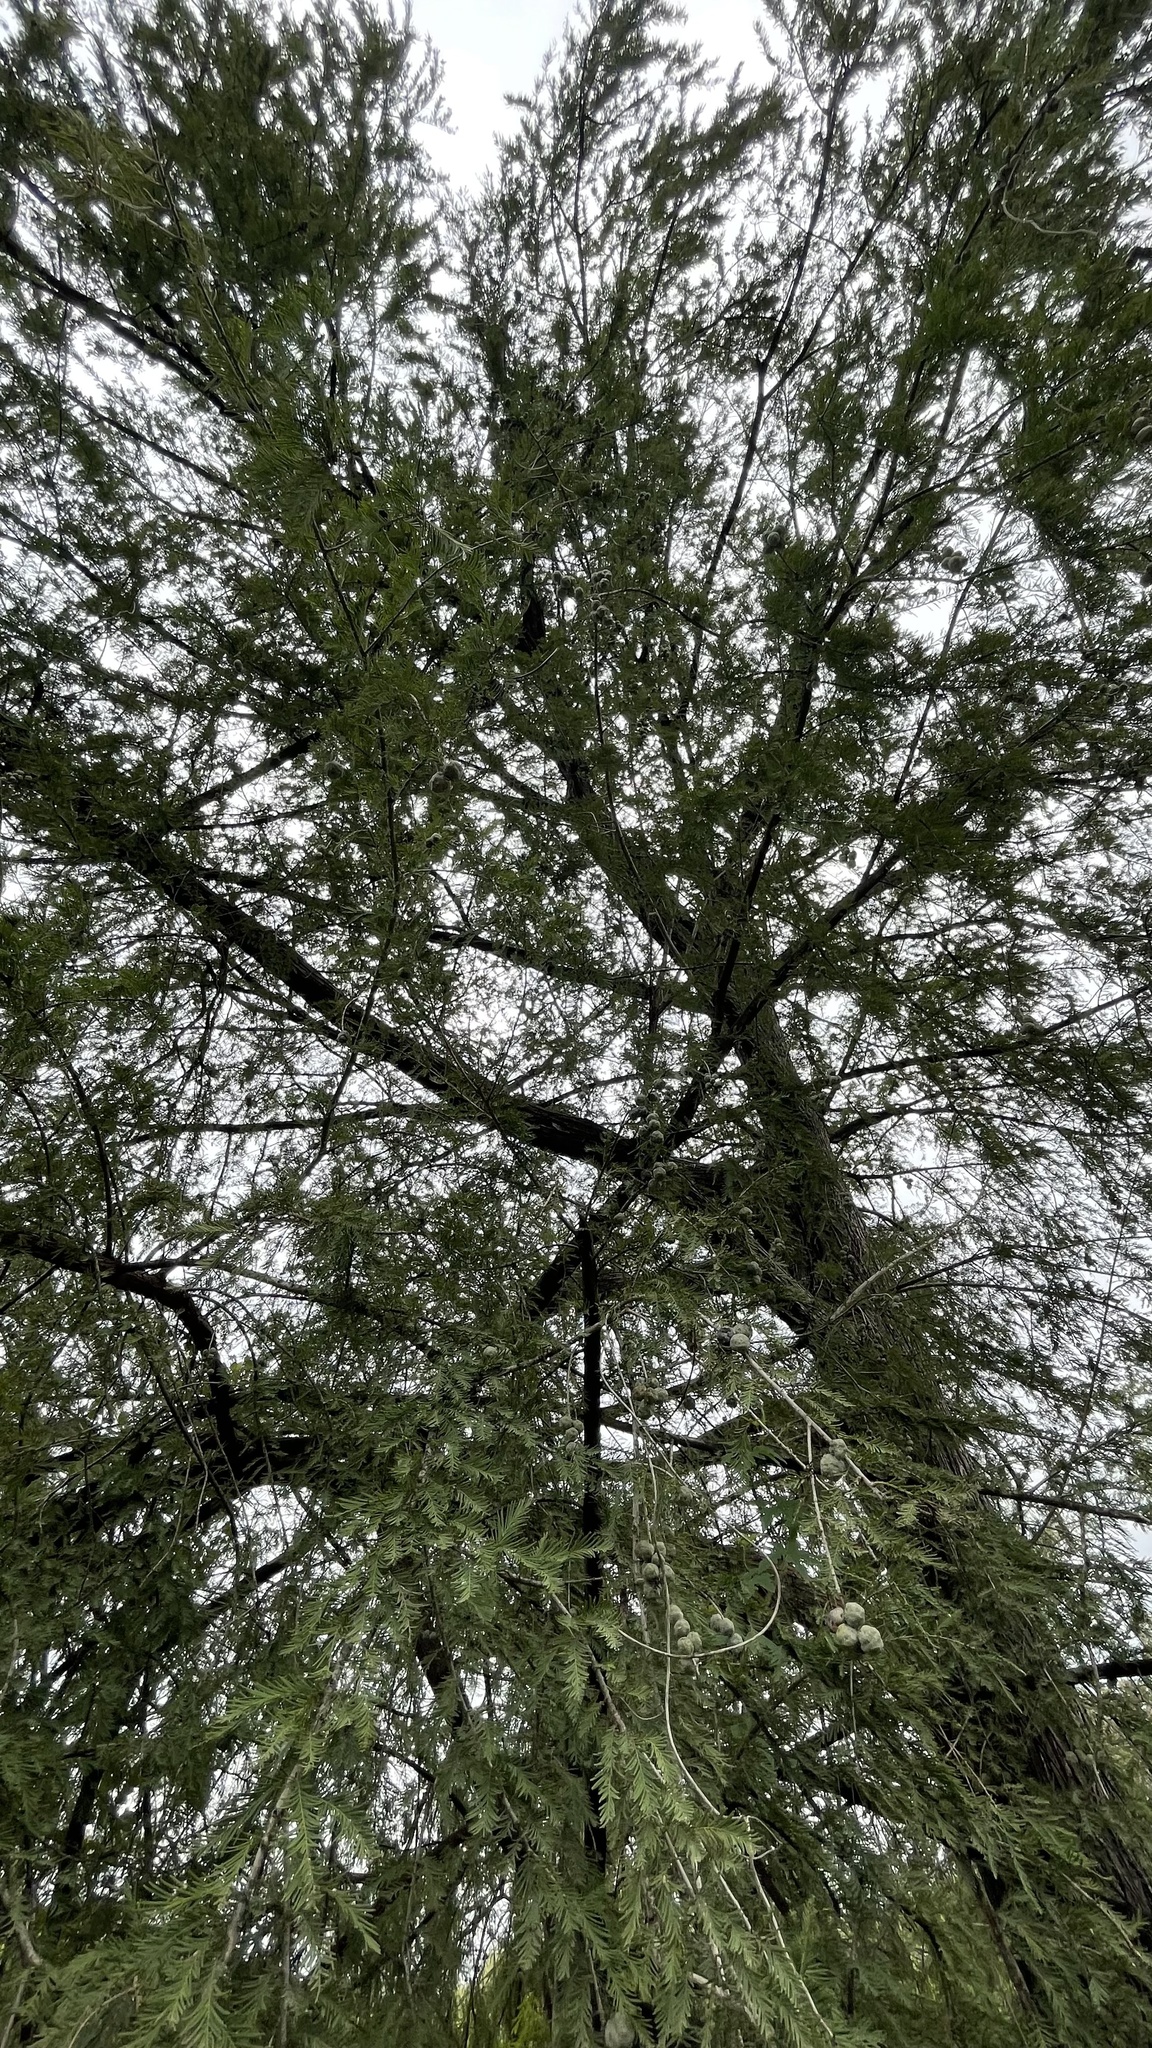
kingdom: Plantae
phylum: Tracheophyta
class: Pinopsida
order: Pinales
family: Cupressaceae
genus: Taxodium
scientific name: Taxodium mucronatum
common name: Montezume bald cypress
